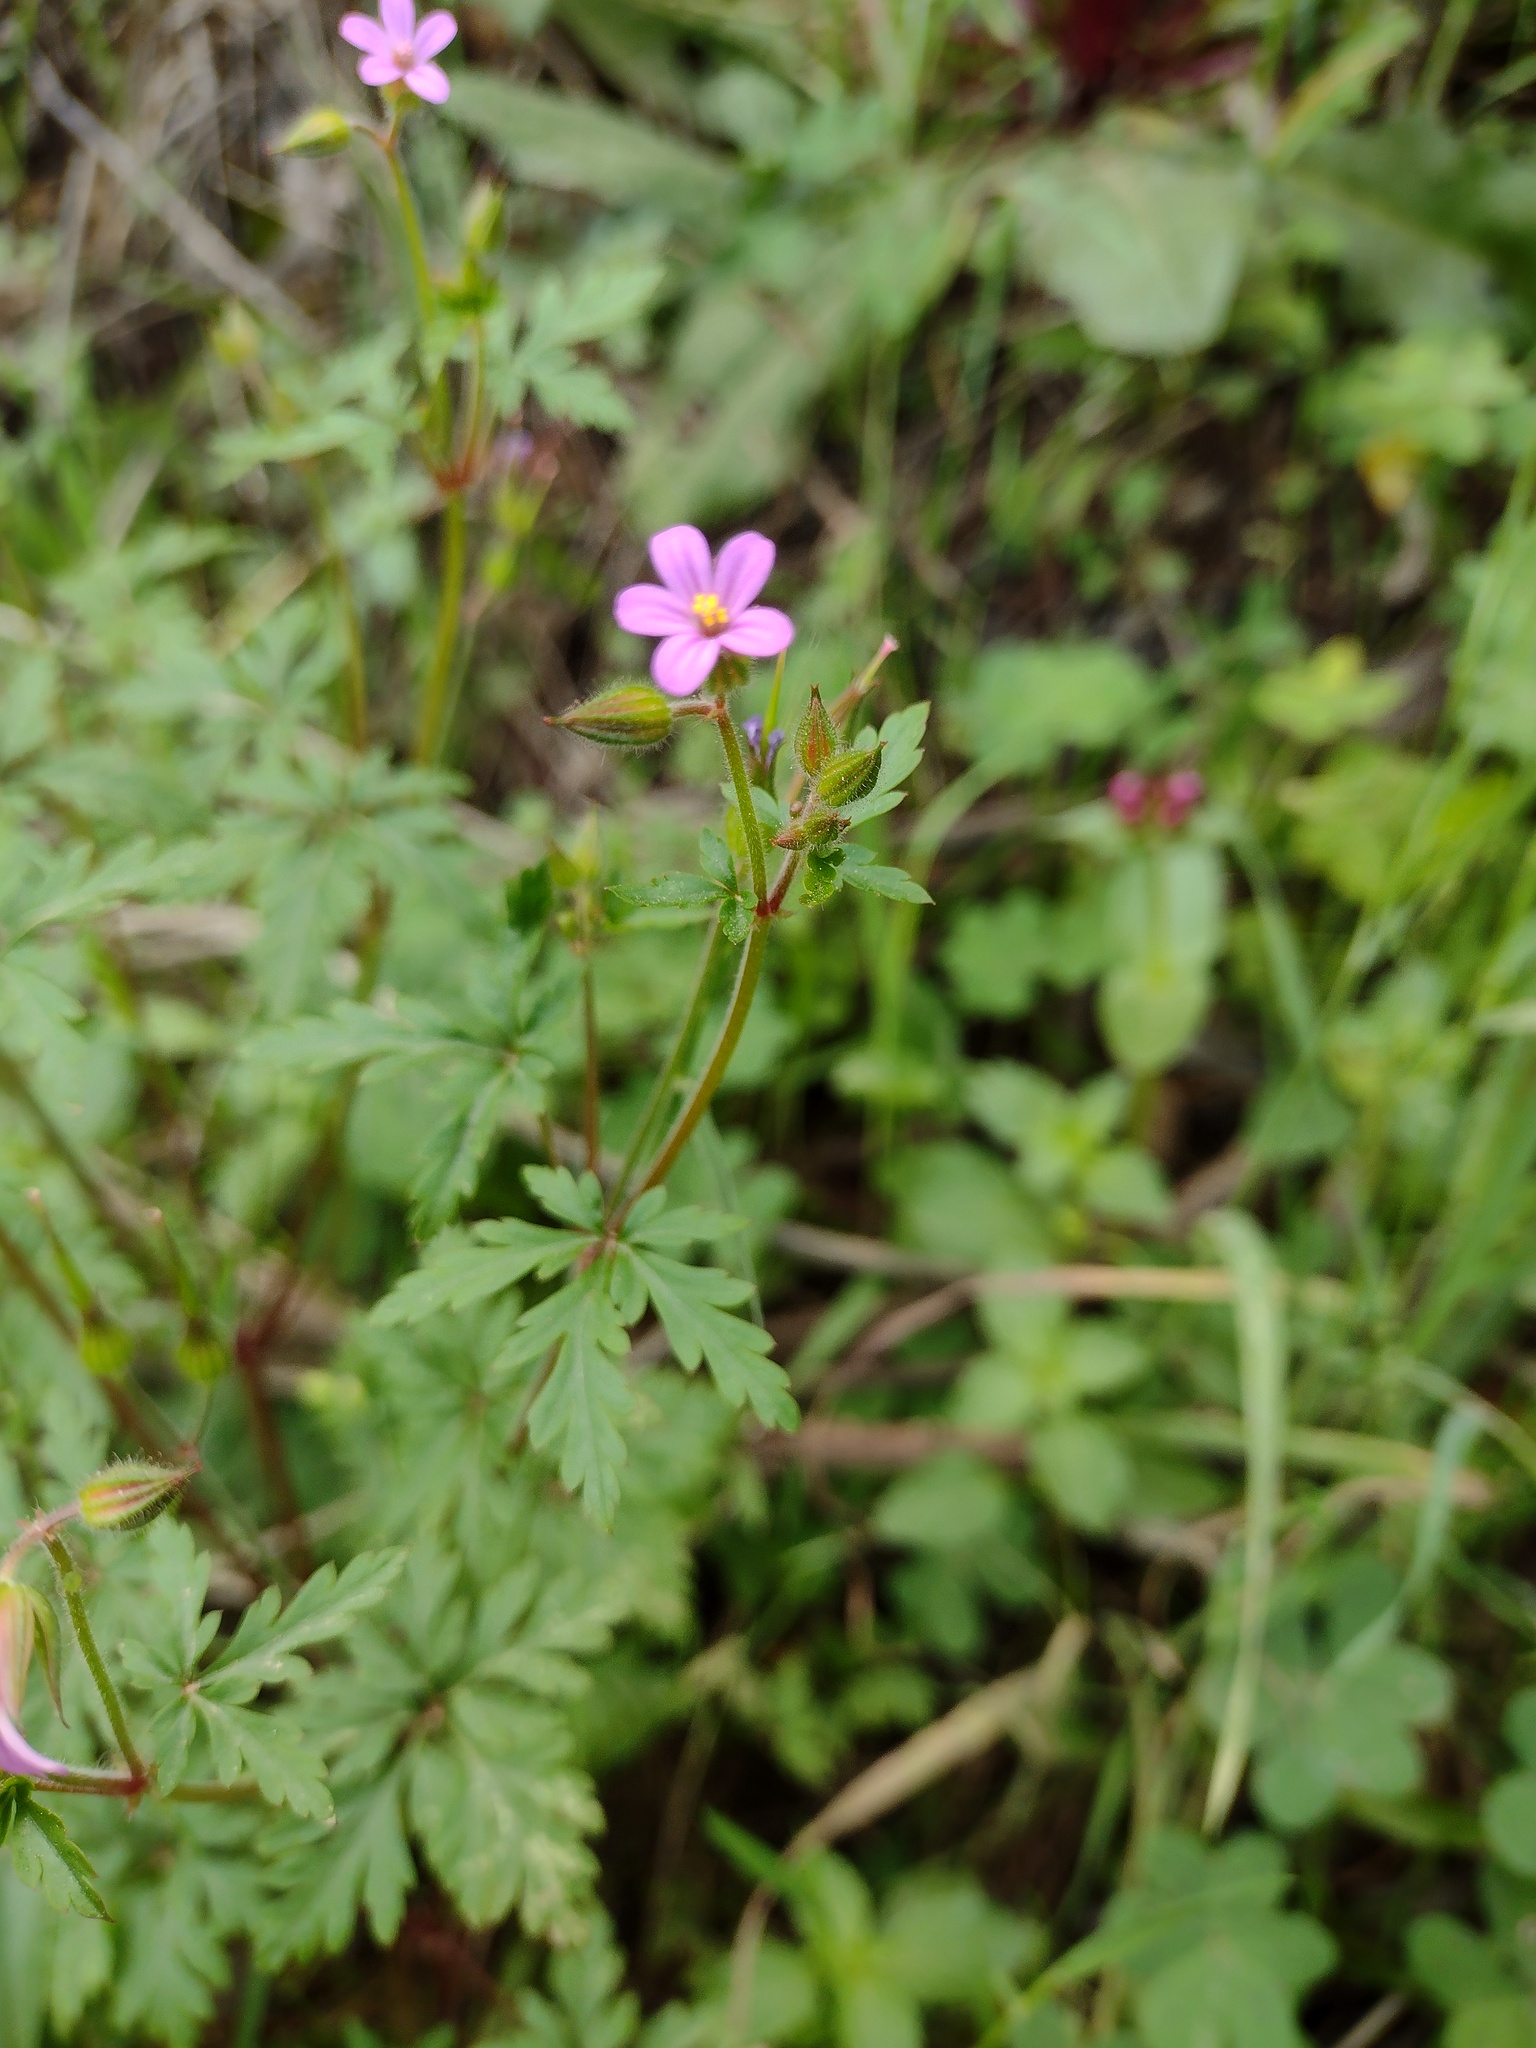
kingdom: Plantae
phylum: Tracheophyta
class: Magnoliopsida
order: Geraniales
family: Geraniaceae
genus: Geranium
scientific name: Geranium purpureum
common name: Little-robin
